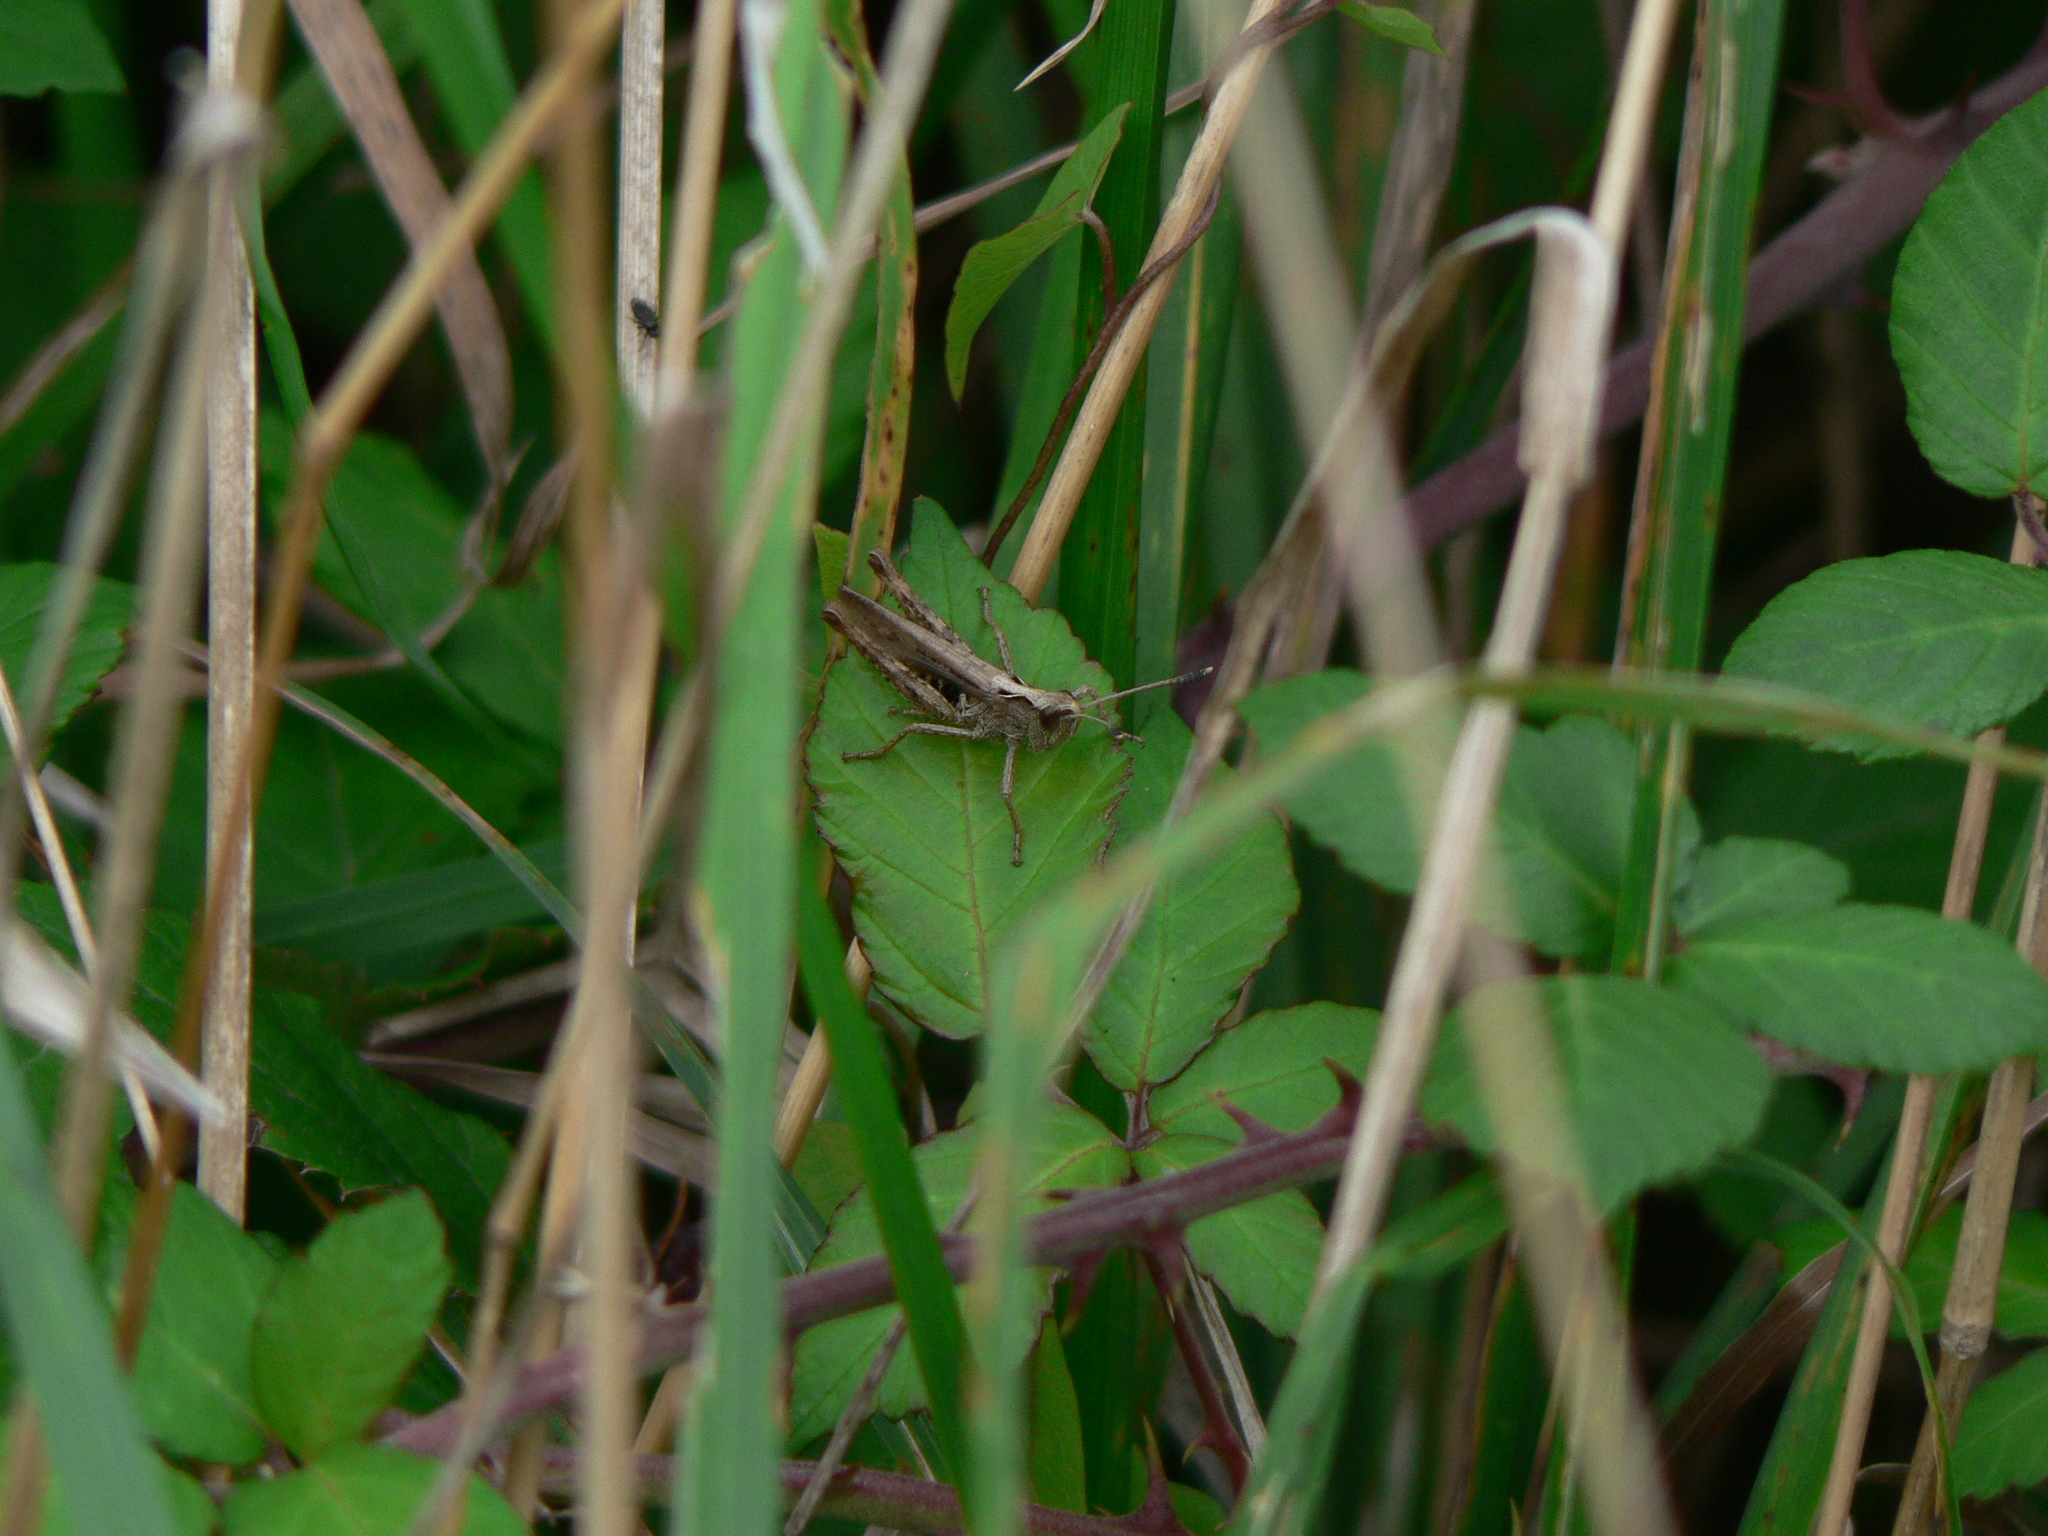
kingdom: Animalia
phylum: Arthropoda
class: Insecta
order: Orthoptera
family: Acrididae
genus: Gomphocerippus
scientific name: Gomphocerippus rufus
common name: Rufous grasshopper
